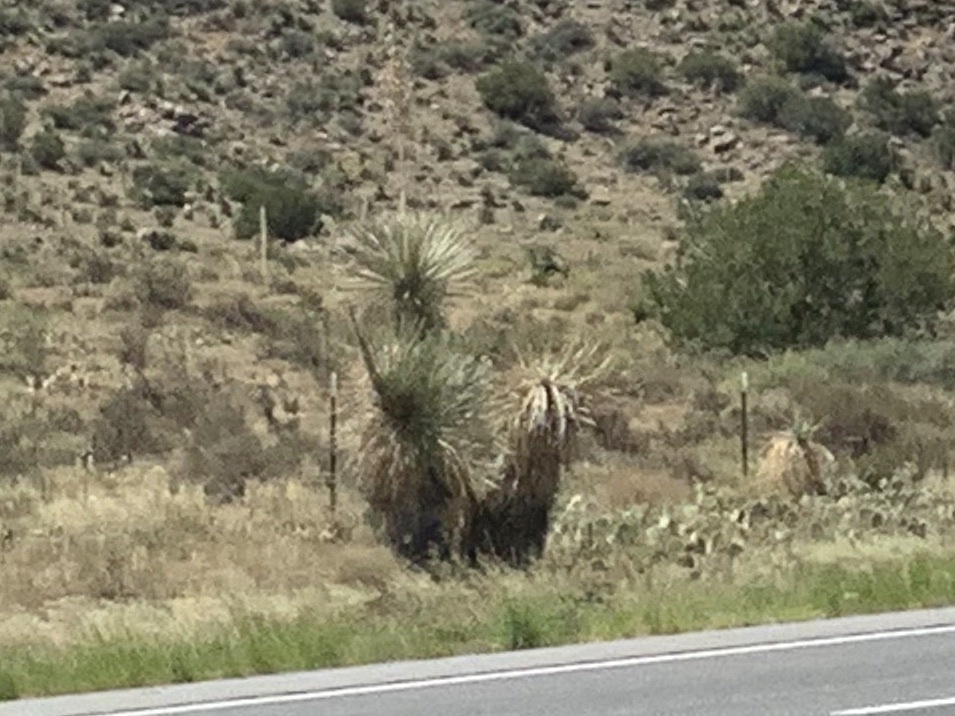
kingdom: Plantae
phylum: Tracheophyta
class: Liliopsida
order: Asparagales
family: Asparagaceae
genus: Yucca
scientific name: Yucca elata
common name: Palmella
